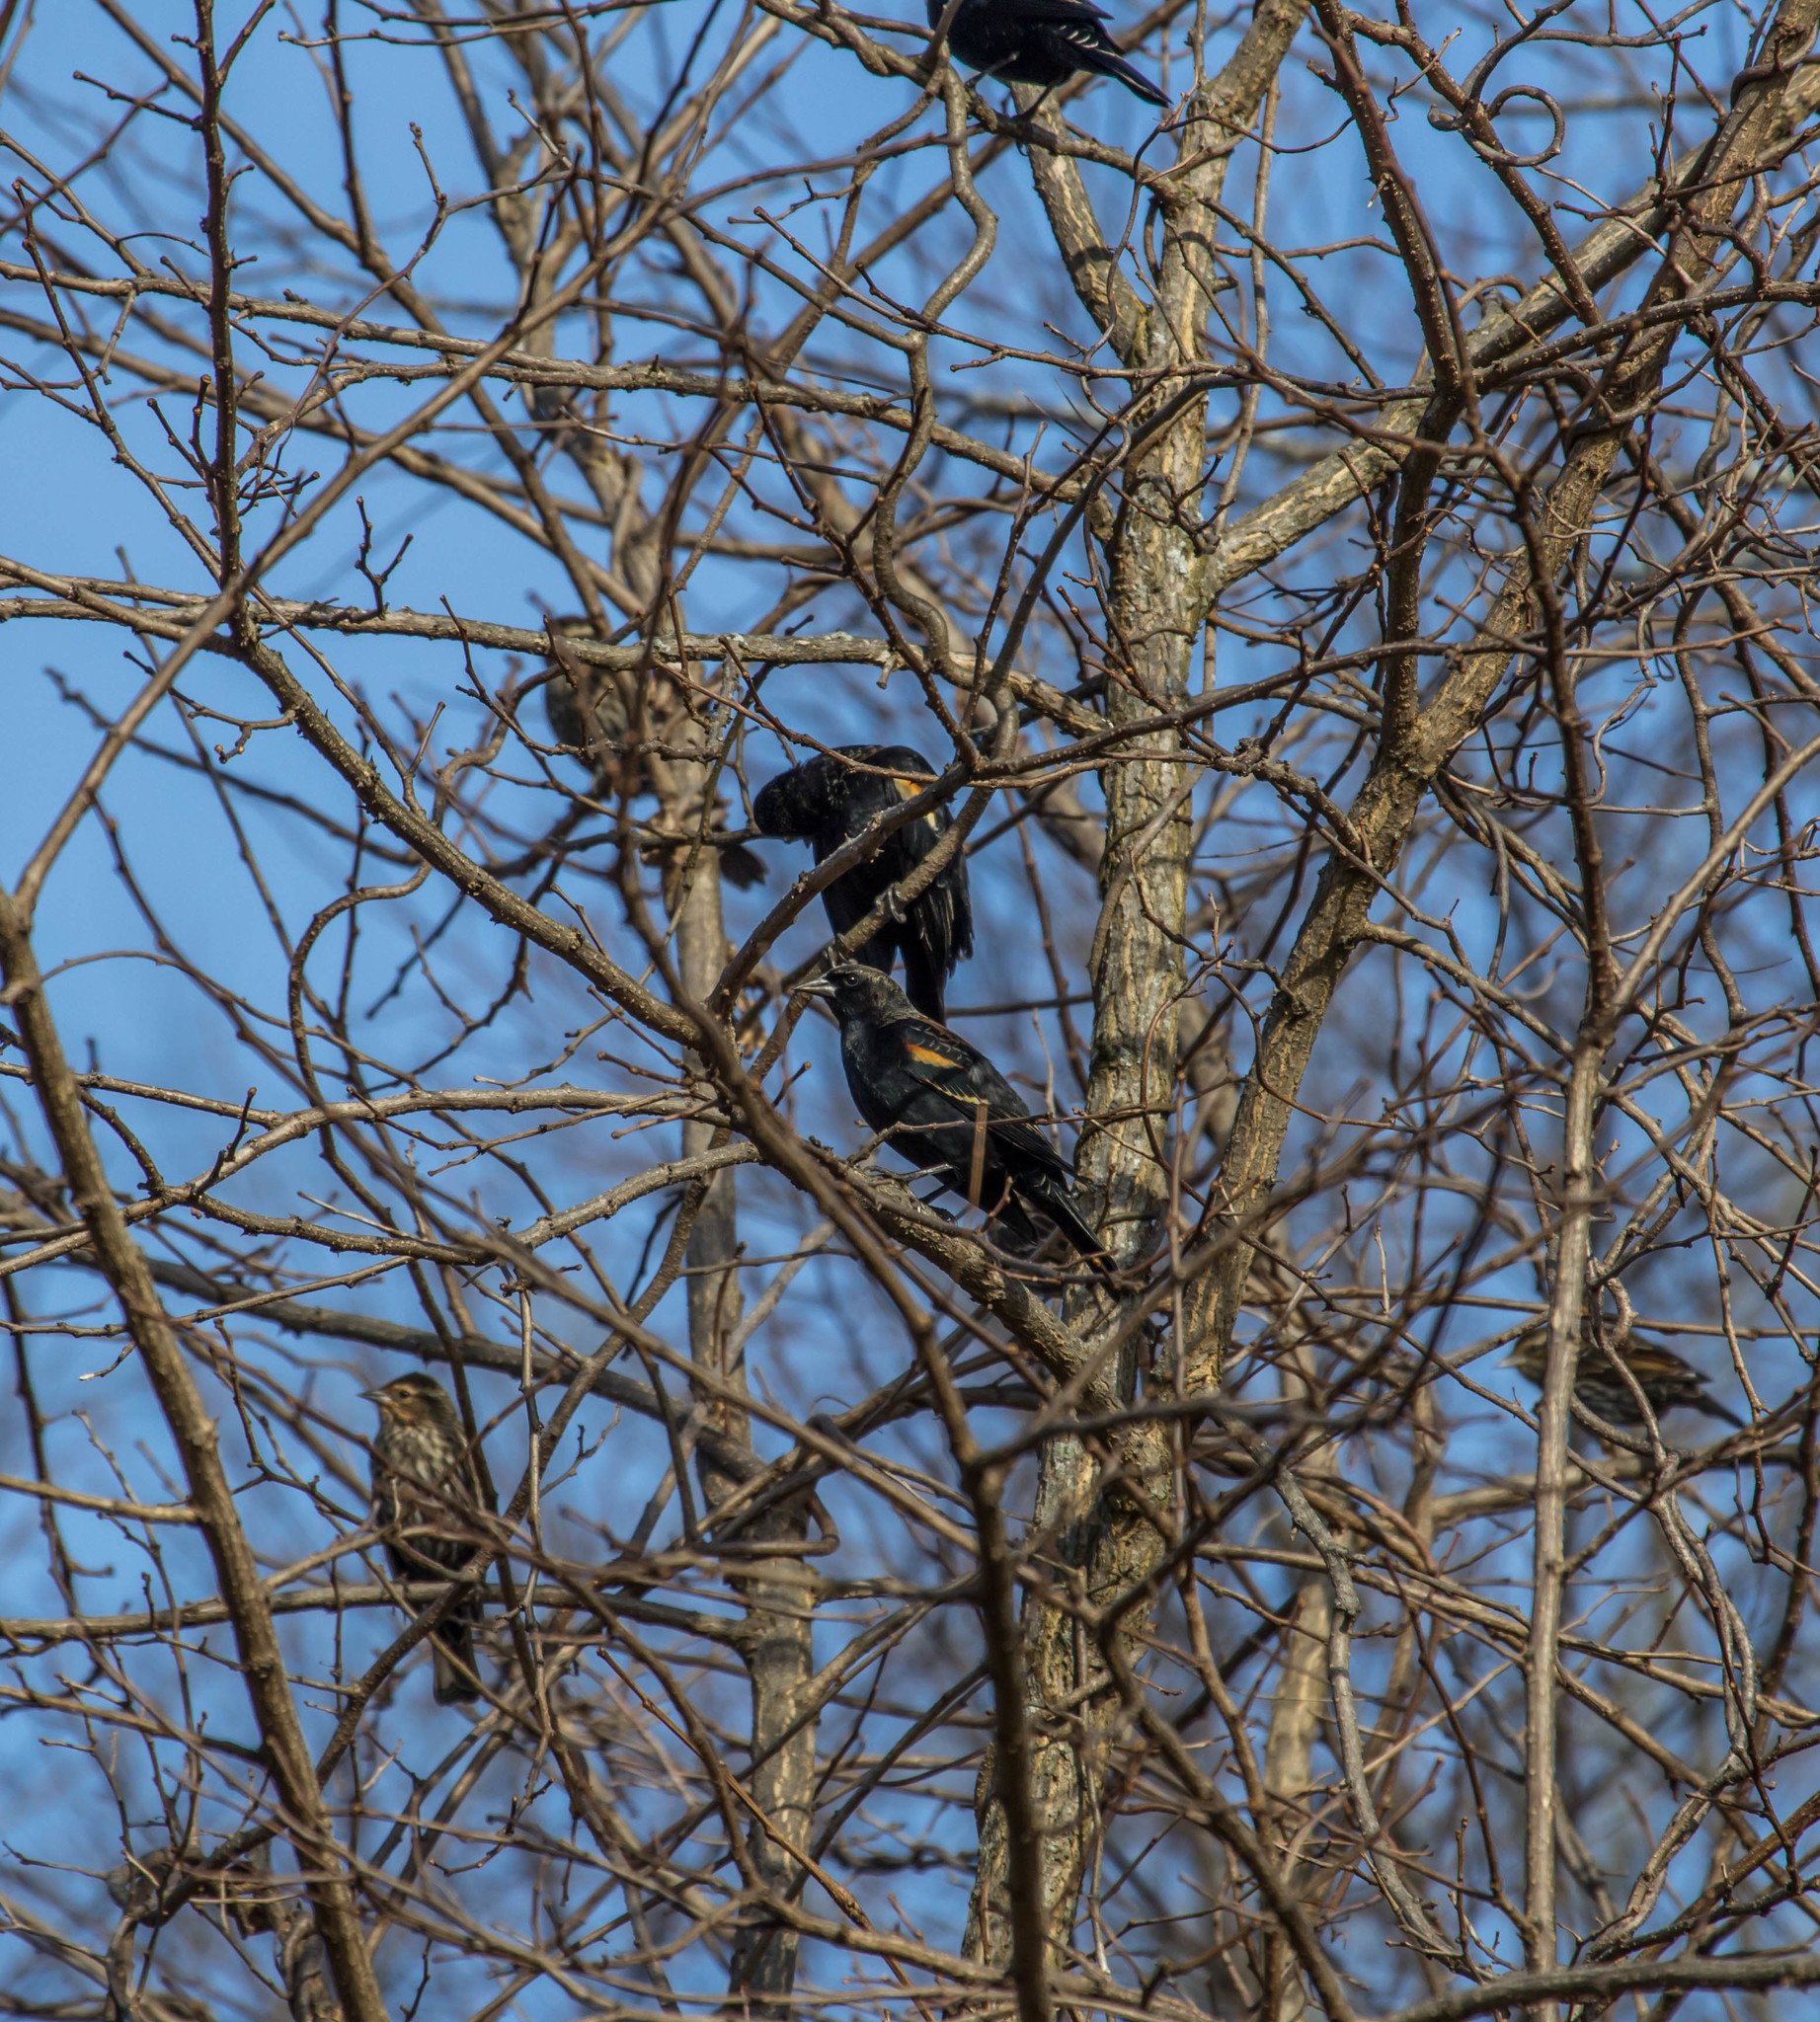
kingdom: Animalia
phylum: Chordata
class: Aves
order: Passeriformes
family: Icteridae
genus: Agelaius
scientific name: Agelaius phoeniceus
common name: Red-winged blackbird
